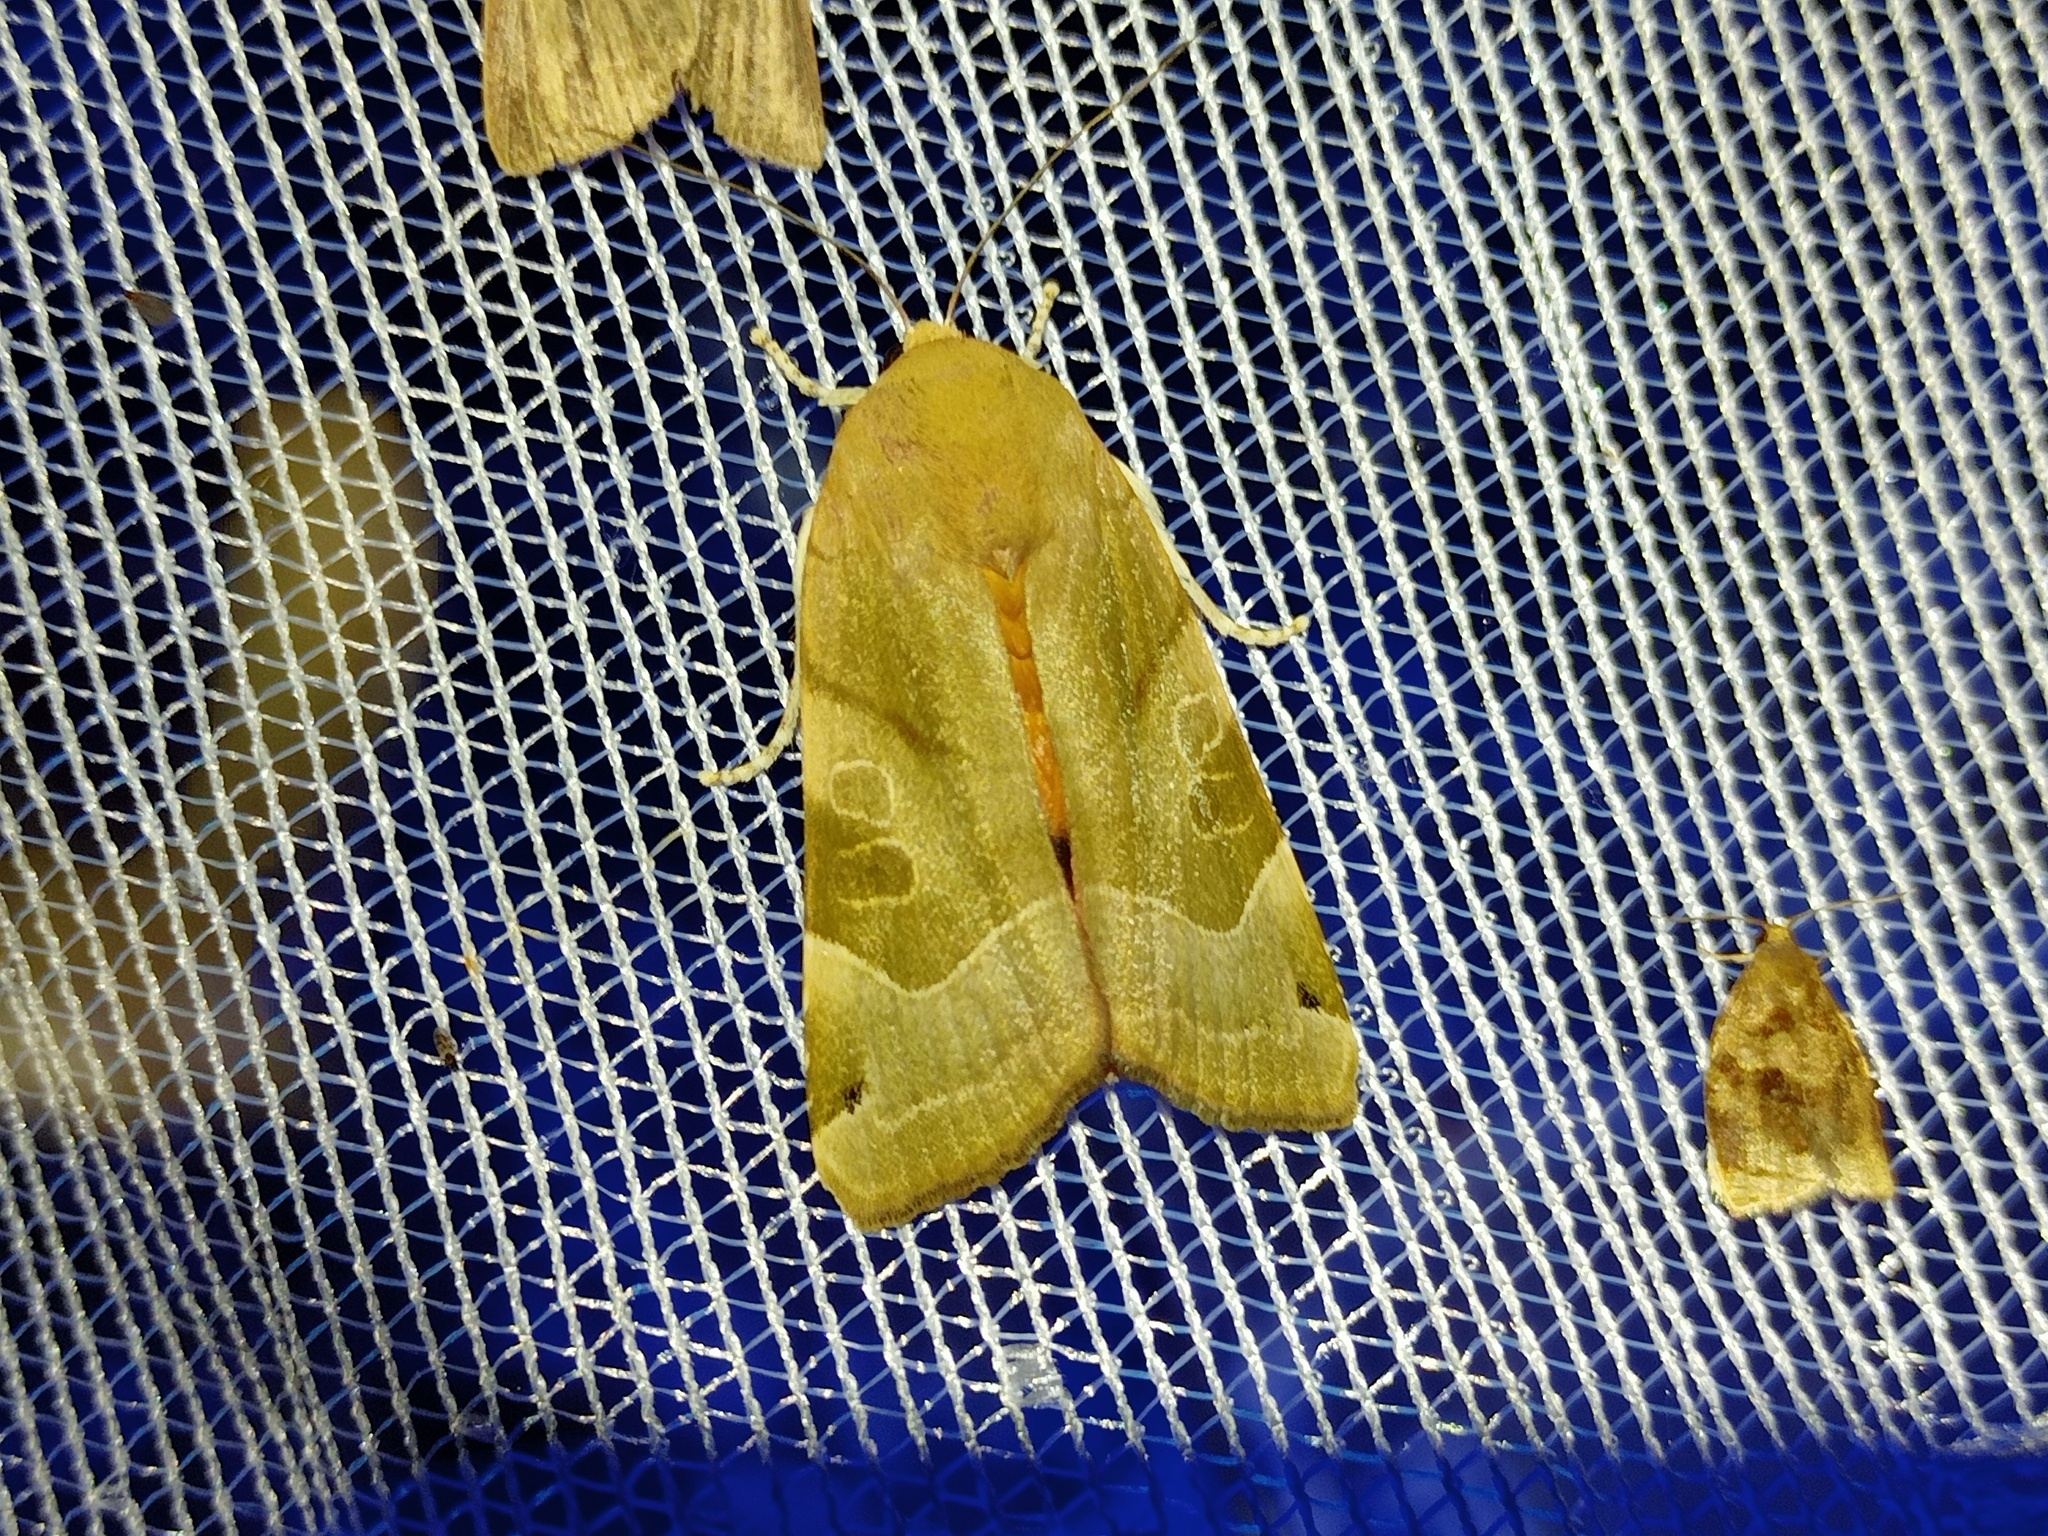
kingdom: Animalia
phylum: Arthropoda
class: Insecta
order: Lepidoptera
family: Noctuidae
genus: Noctua
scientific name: Noctua fimbriata
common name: Broad-bordered yellow underwing
